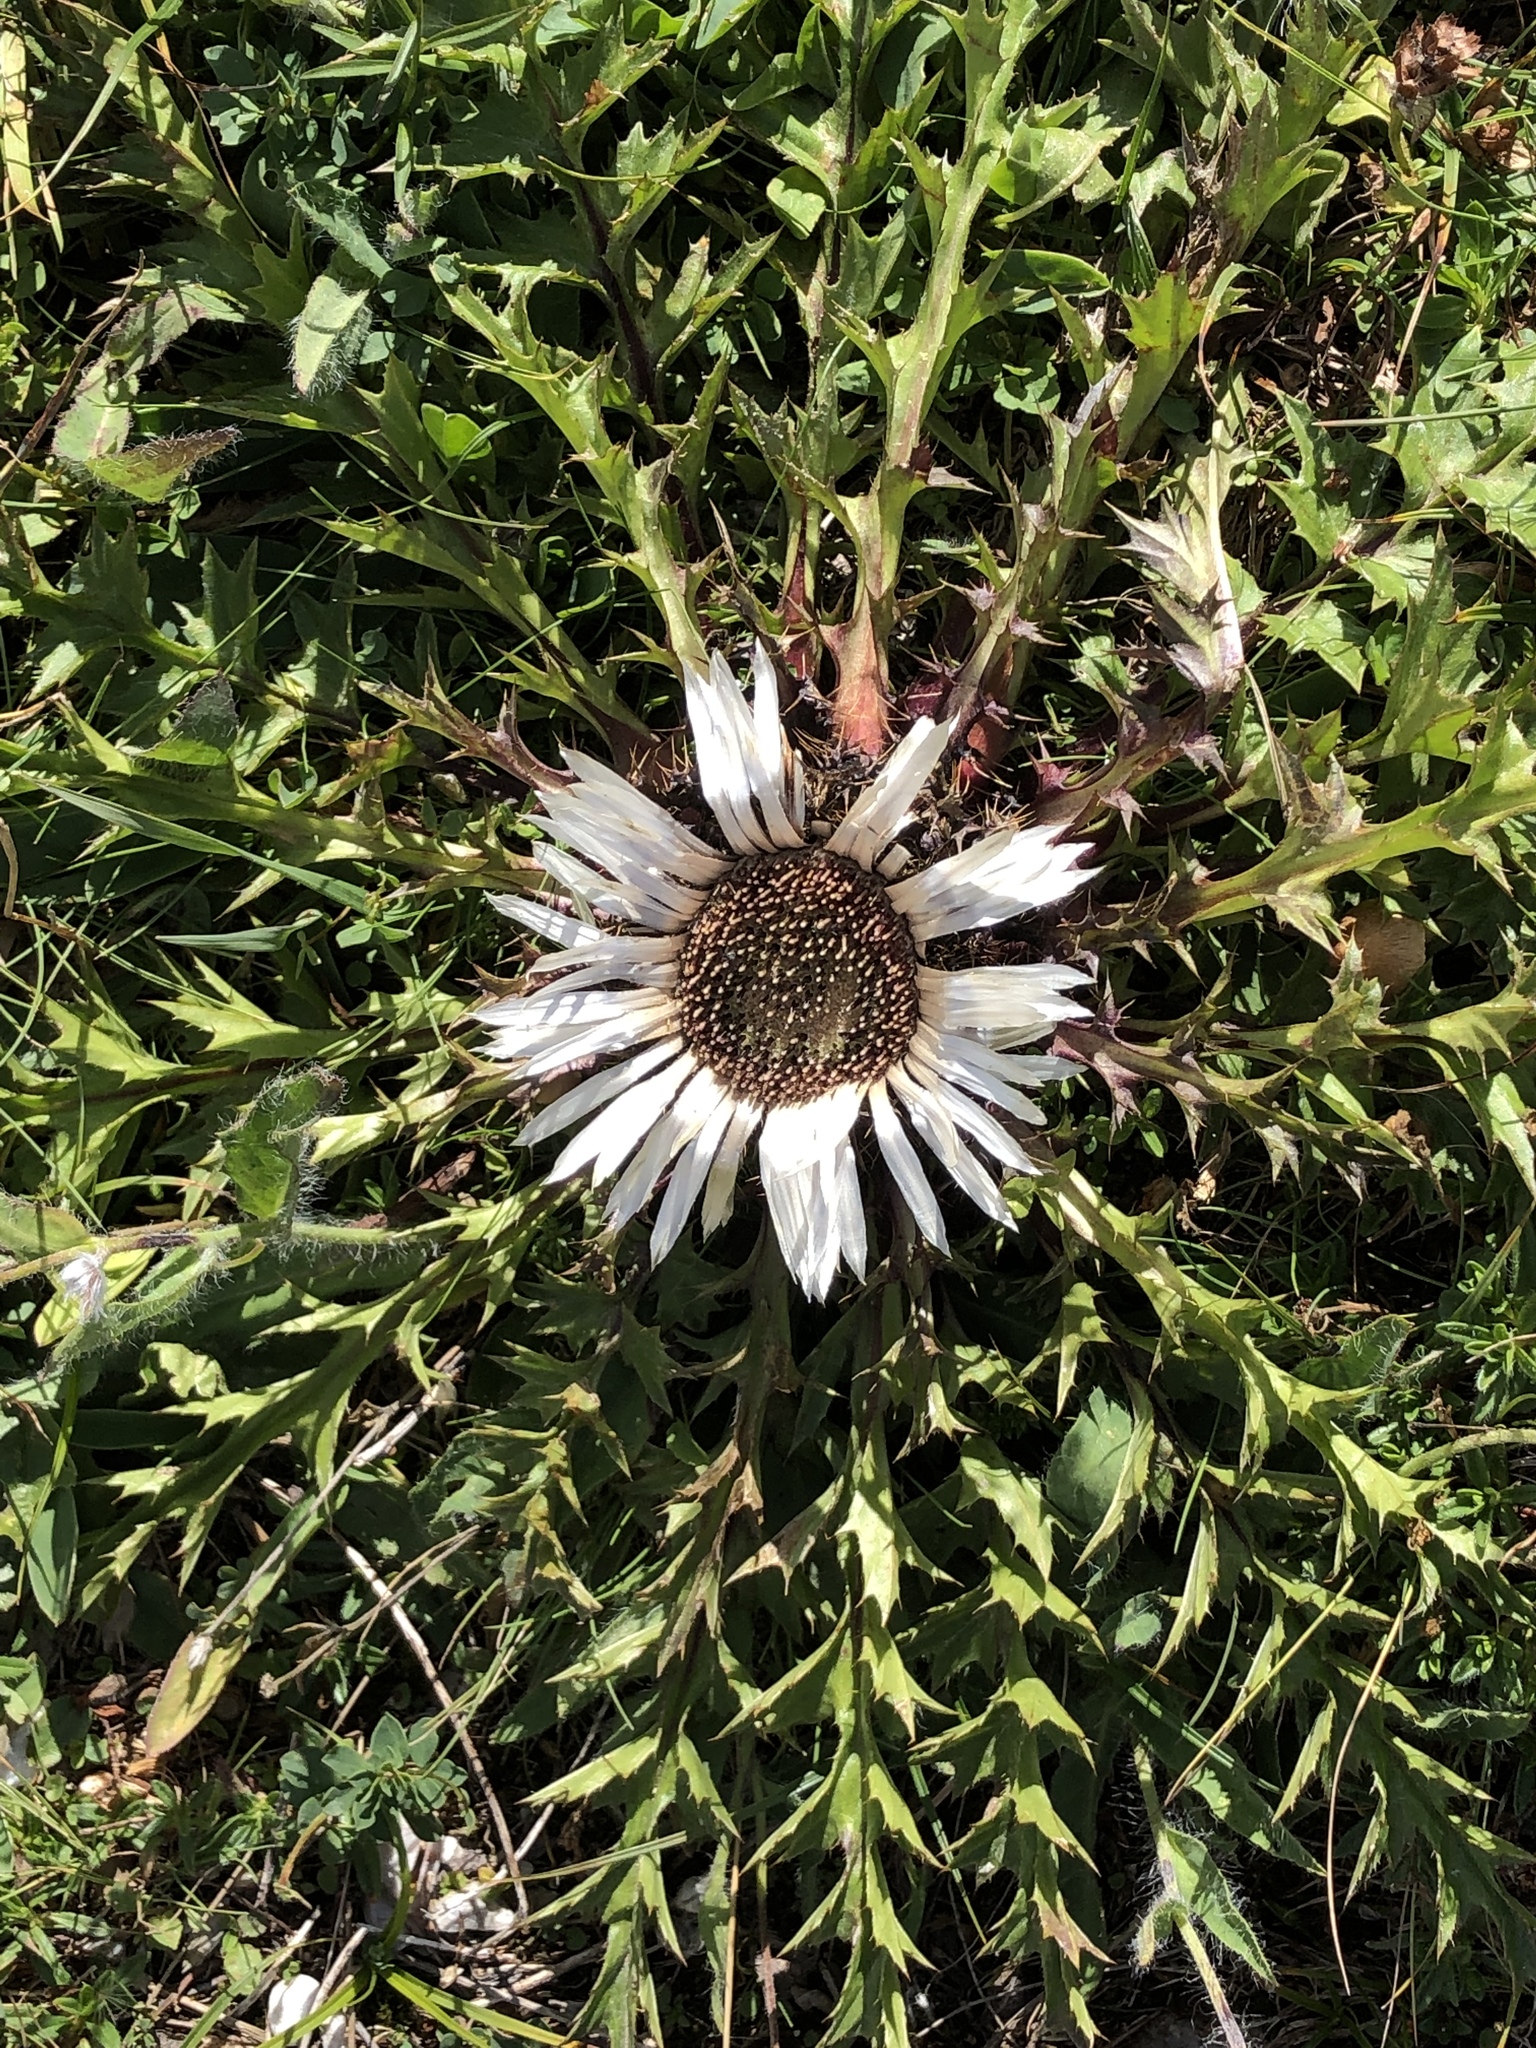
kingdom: Plantae
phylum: Tracheophyta
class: Magnoliopsida
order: Asterales
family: Asteraceae
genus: Carlina
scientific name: Carlina acaulis
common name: Stemless carline thistle
